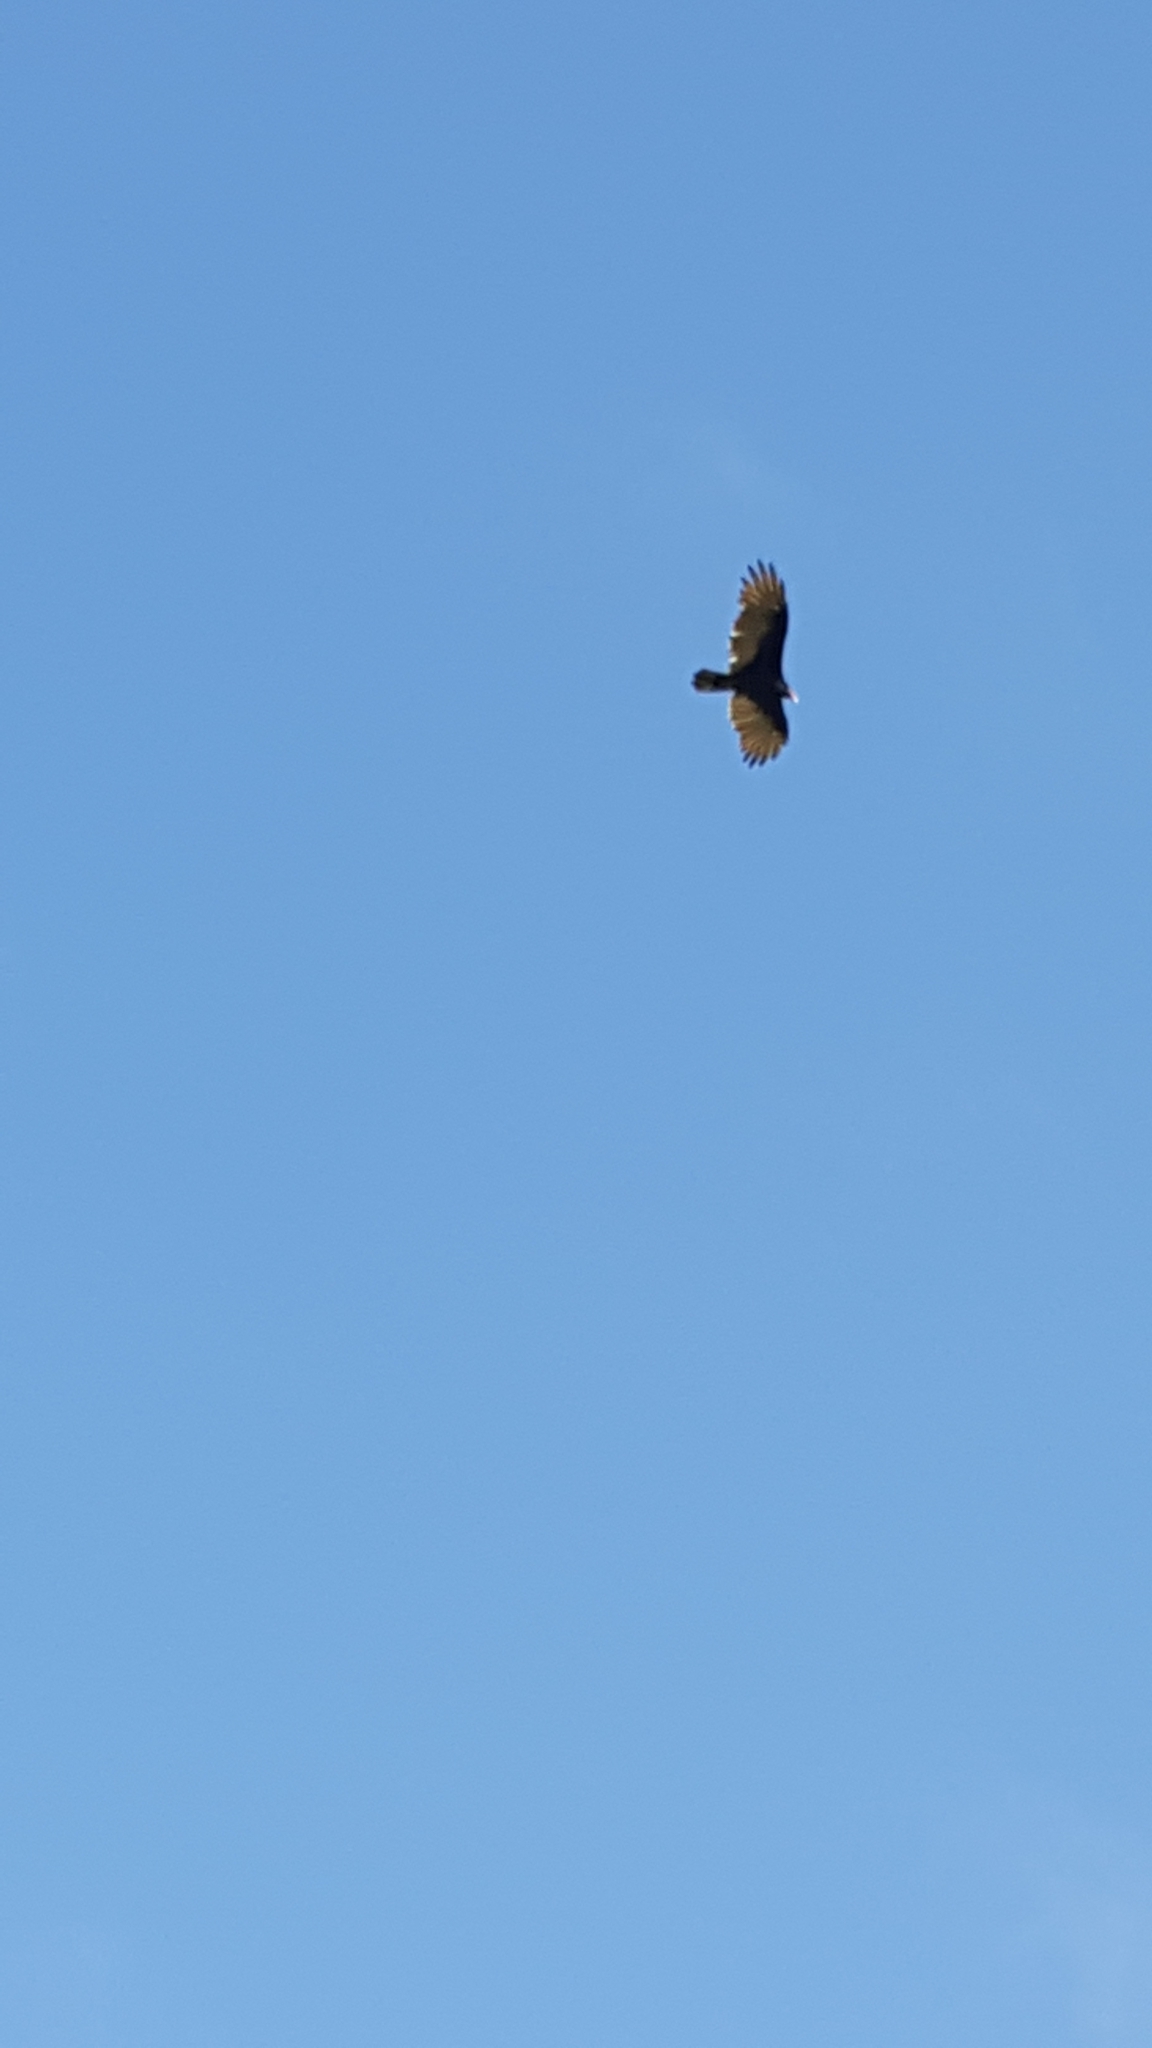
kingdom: Animalia
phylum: Chordata
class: Aves
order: Accipitriformes
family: Cathartidae
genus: Cathartes
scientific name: Cathartes aura
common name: Turkey vulture
